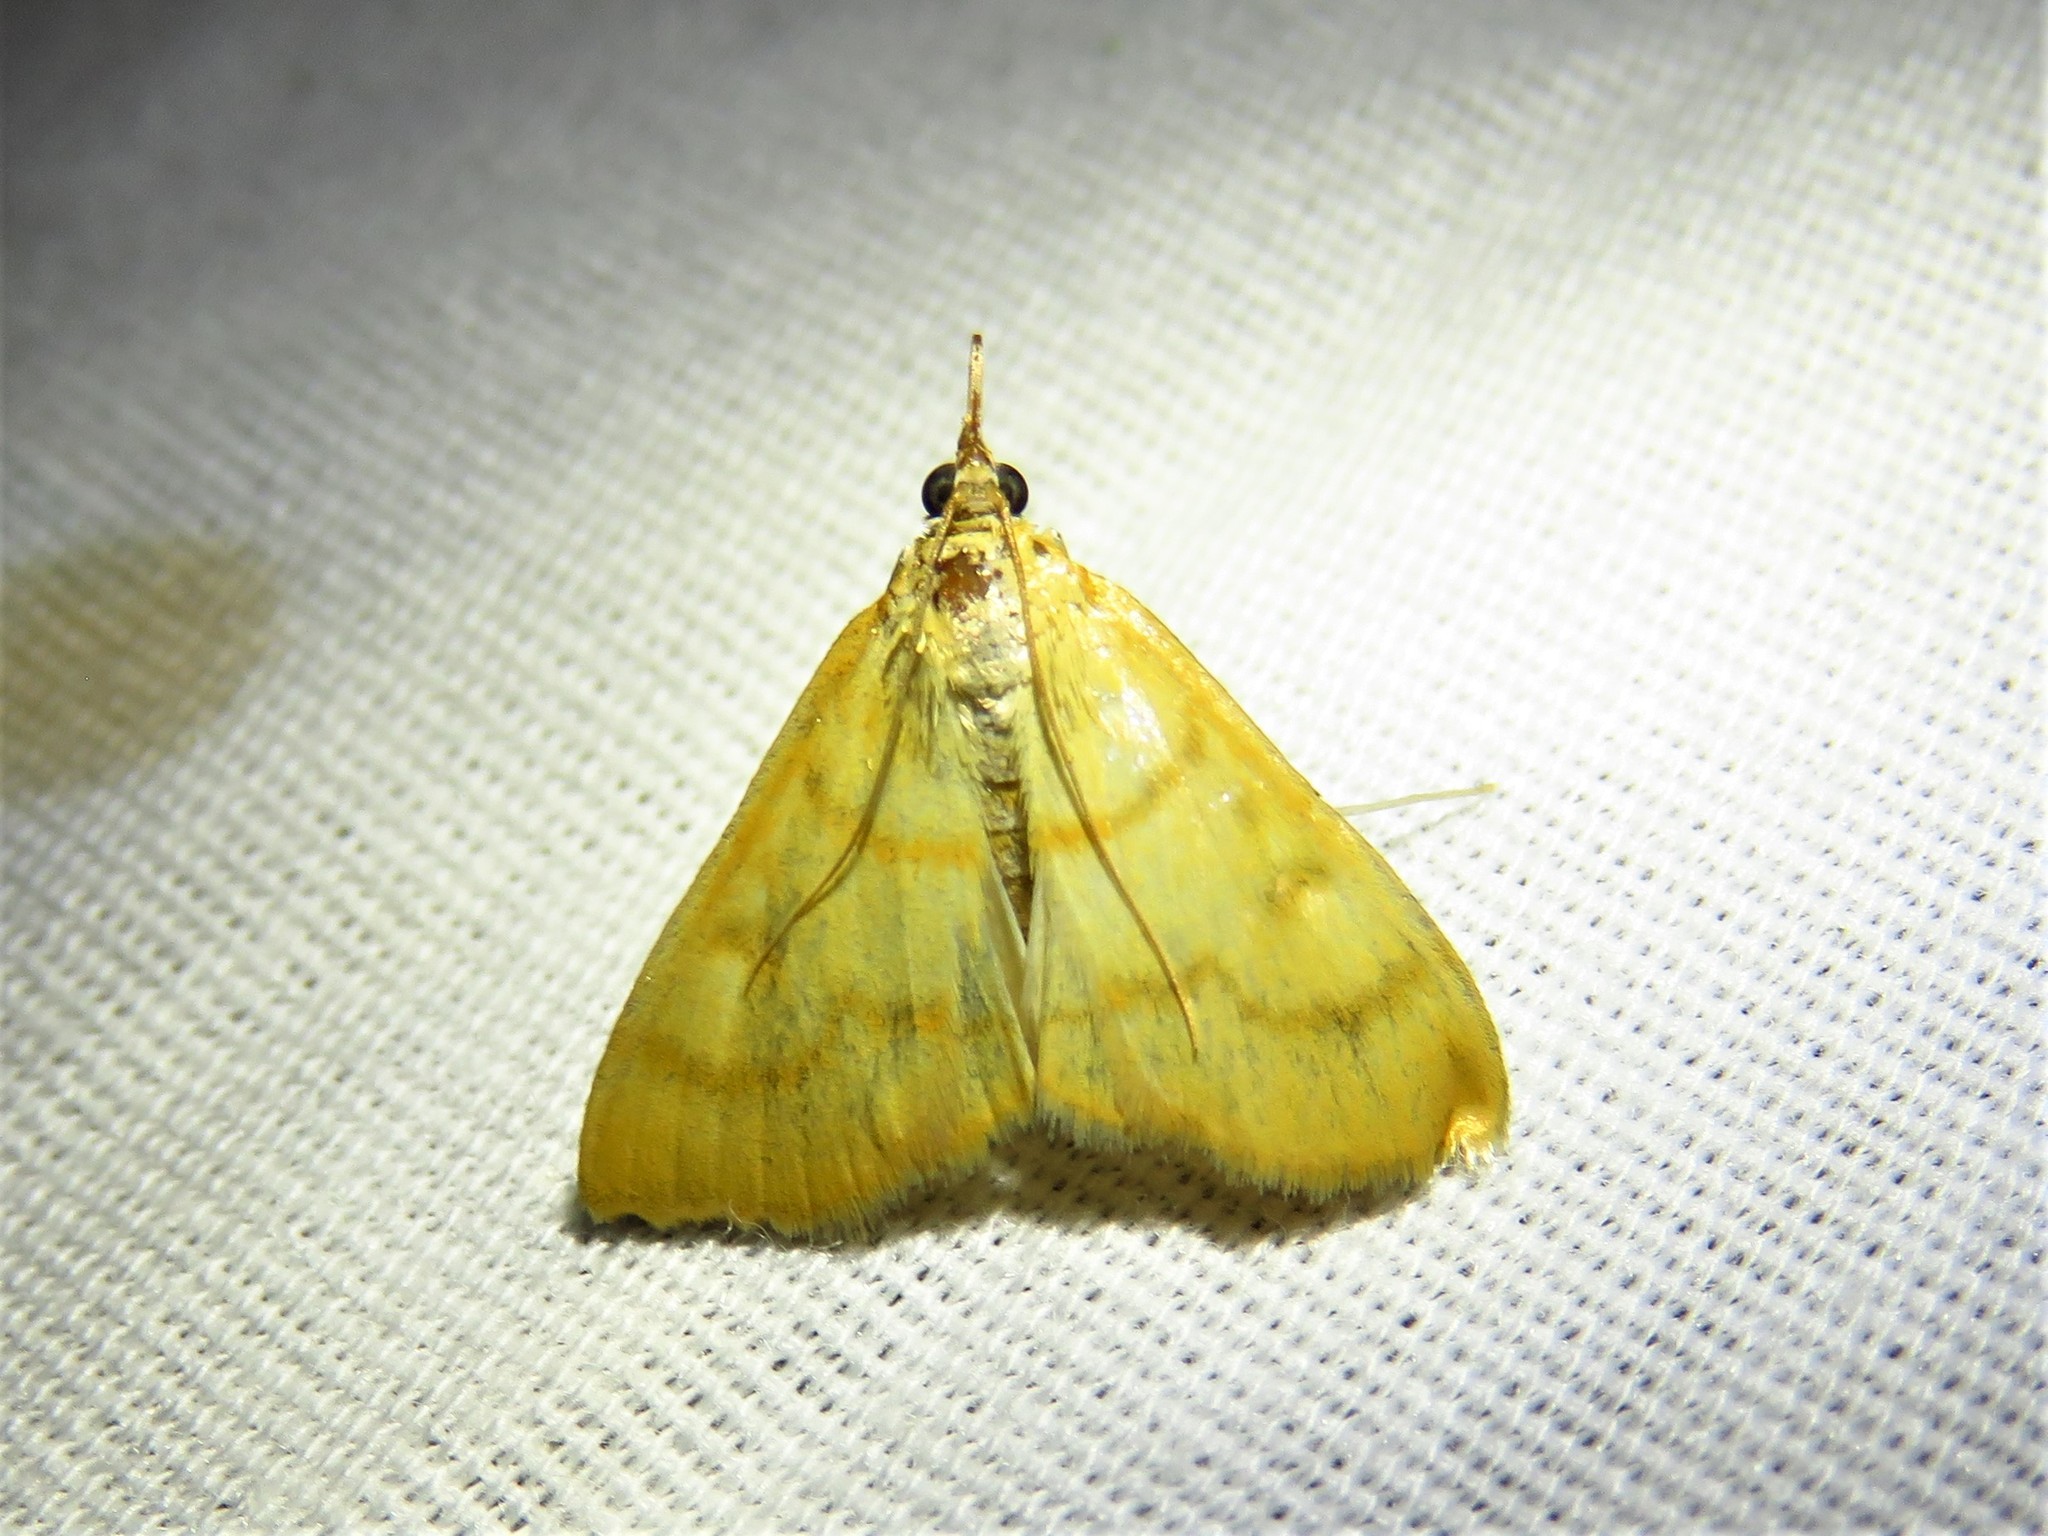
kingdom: Animalia
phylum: Arthropoda
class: Insecta
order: Lepidoptera
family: Crambidae
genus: Helvibotys
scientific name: Helvibotys helvialis
